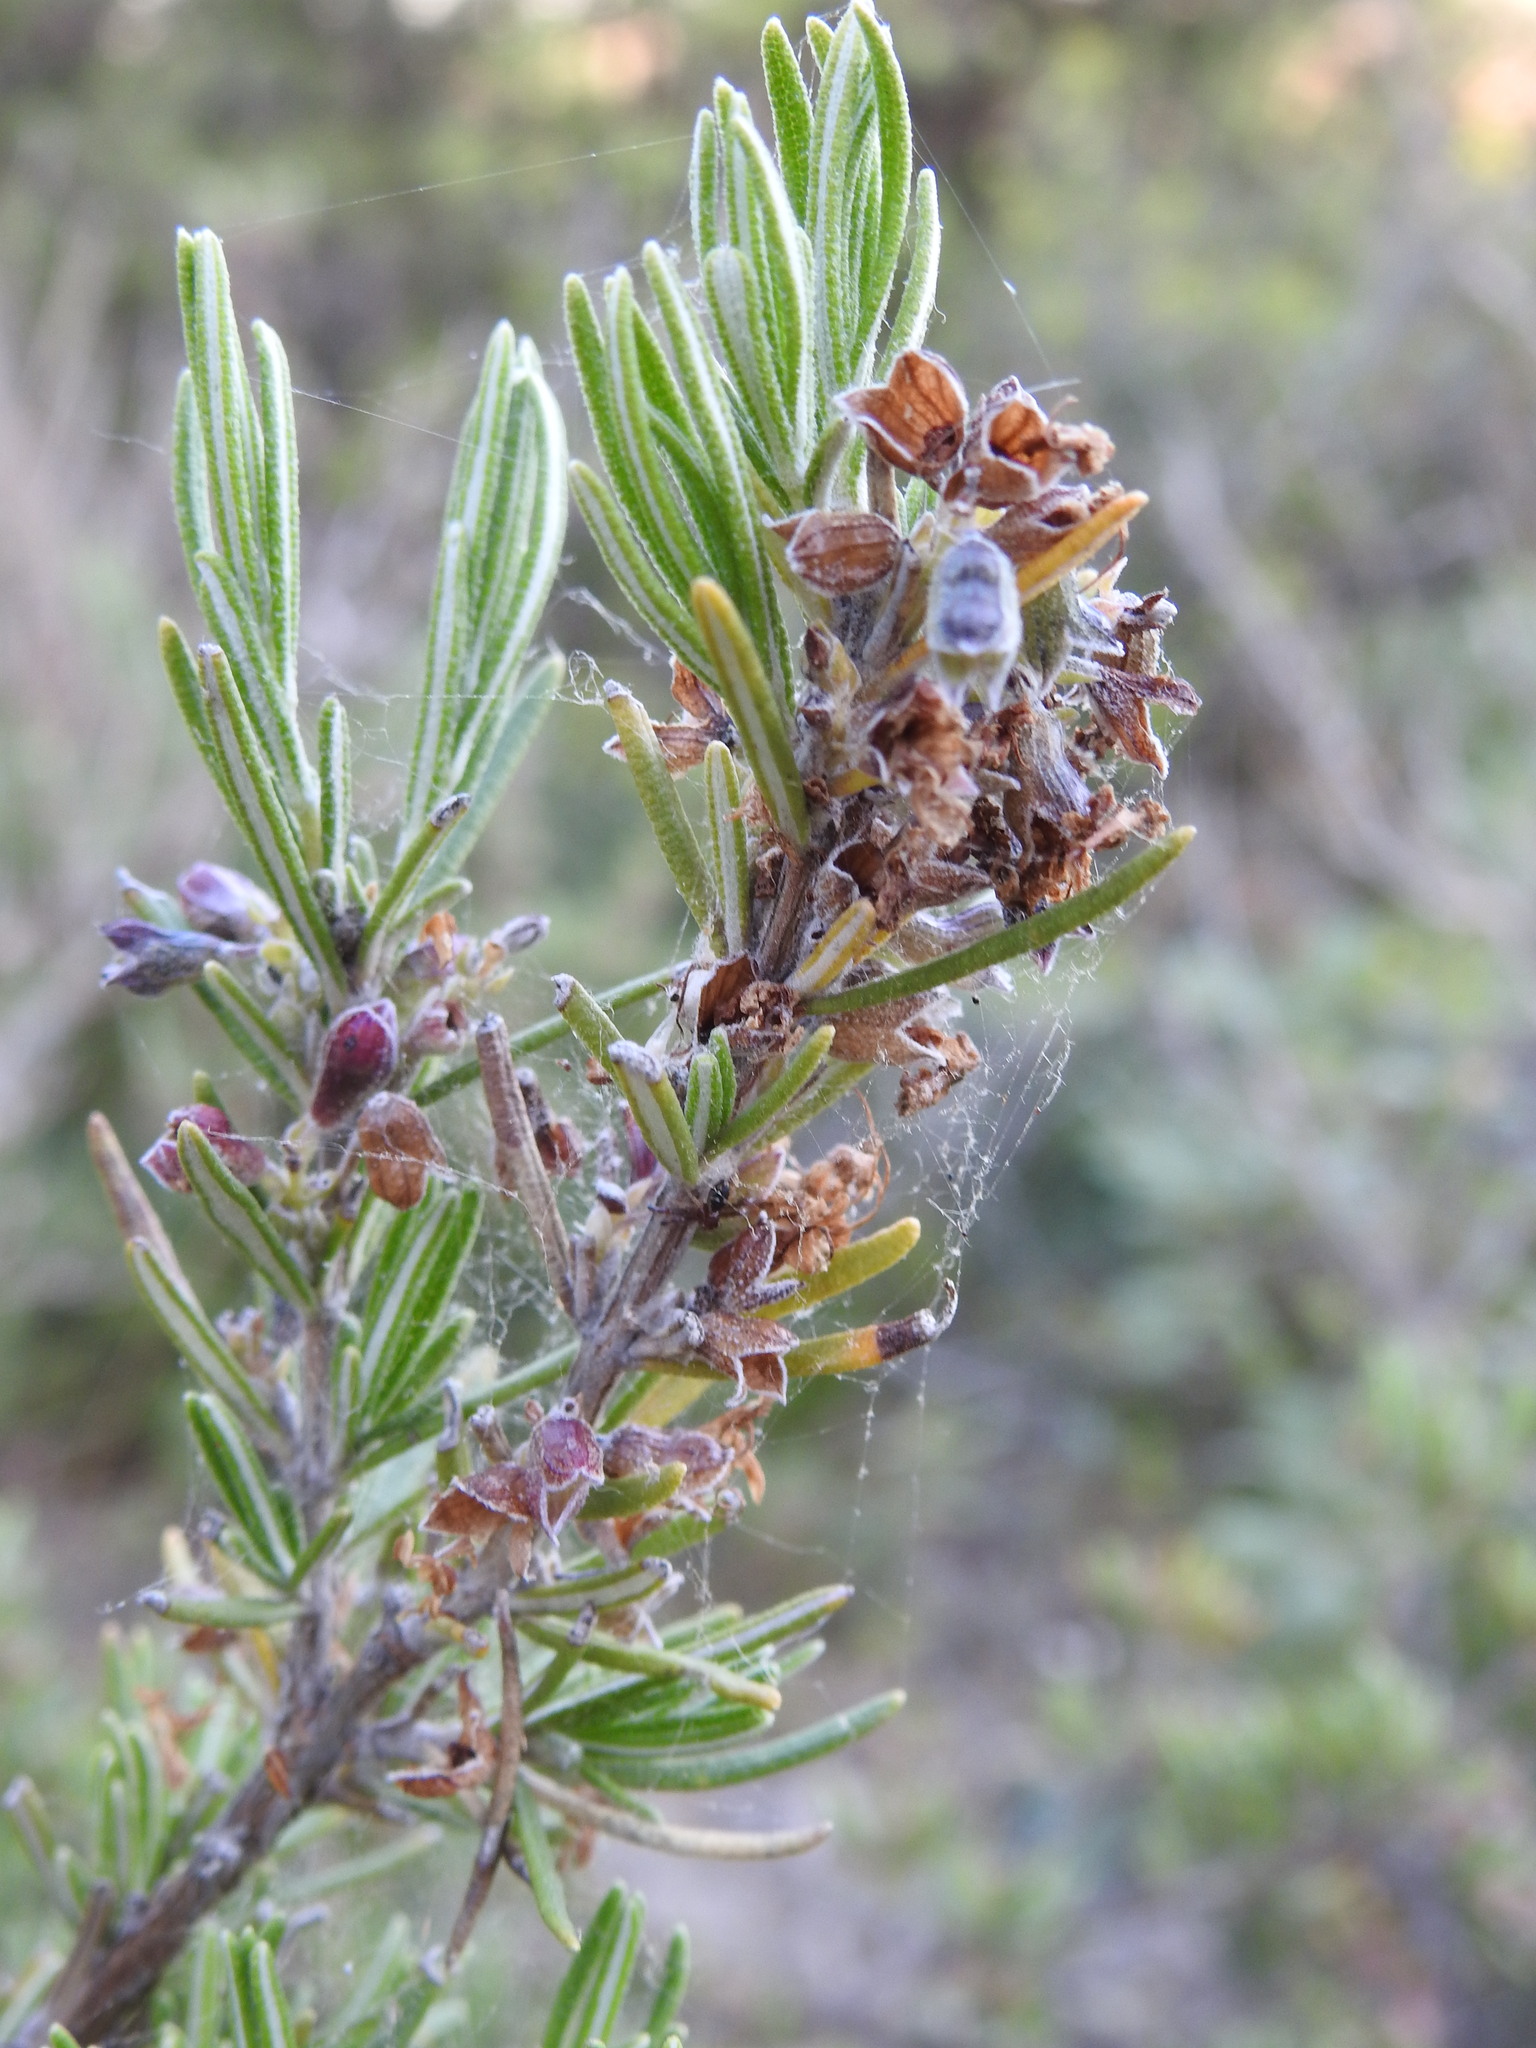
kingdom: Plantae
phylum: Tracheophyta
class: Magnoliopsida
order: Lamiales
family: Lamiaceae
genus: Salvia
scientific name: Salvia rosmarinus
